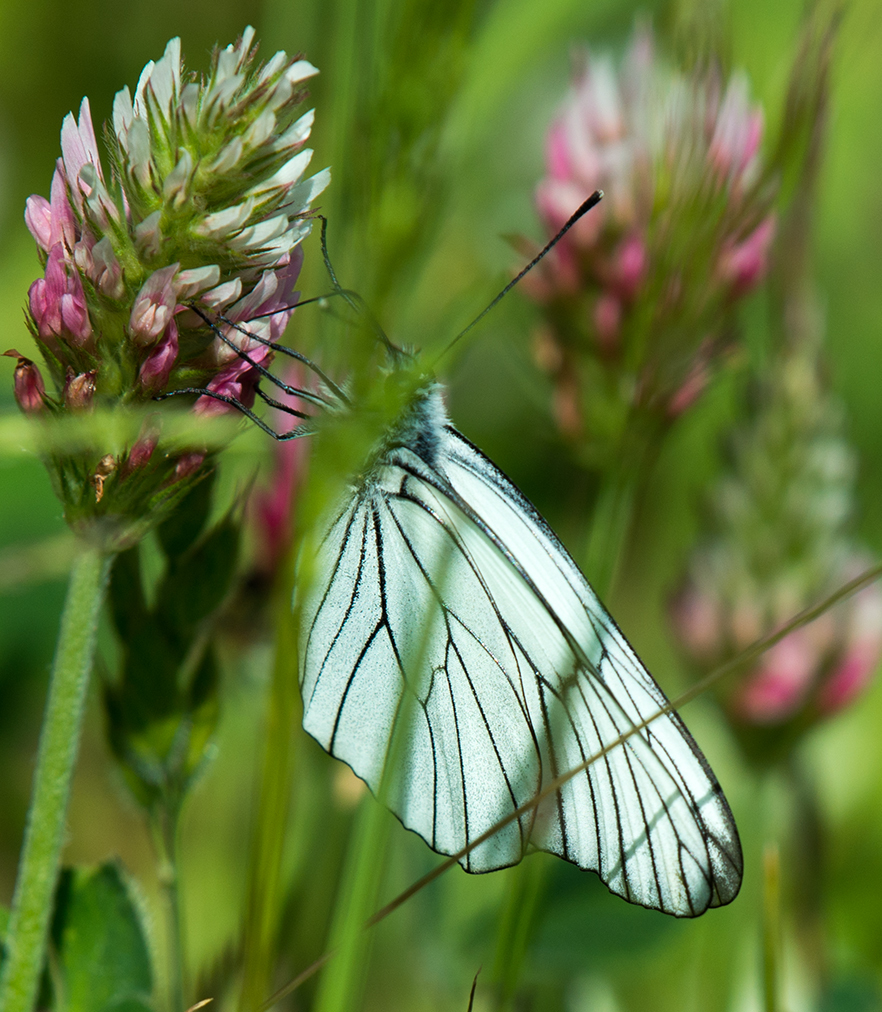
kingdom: Animalia
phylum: Arthropoda
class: Insecta
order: Lepidoptera
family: Pieridae
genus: Aporia
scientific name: Aporia crataegi
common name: Black-veined white
